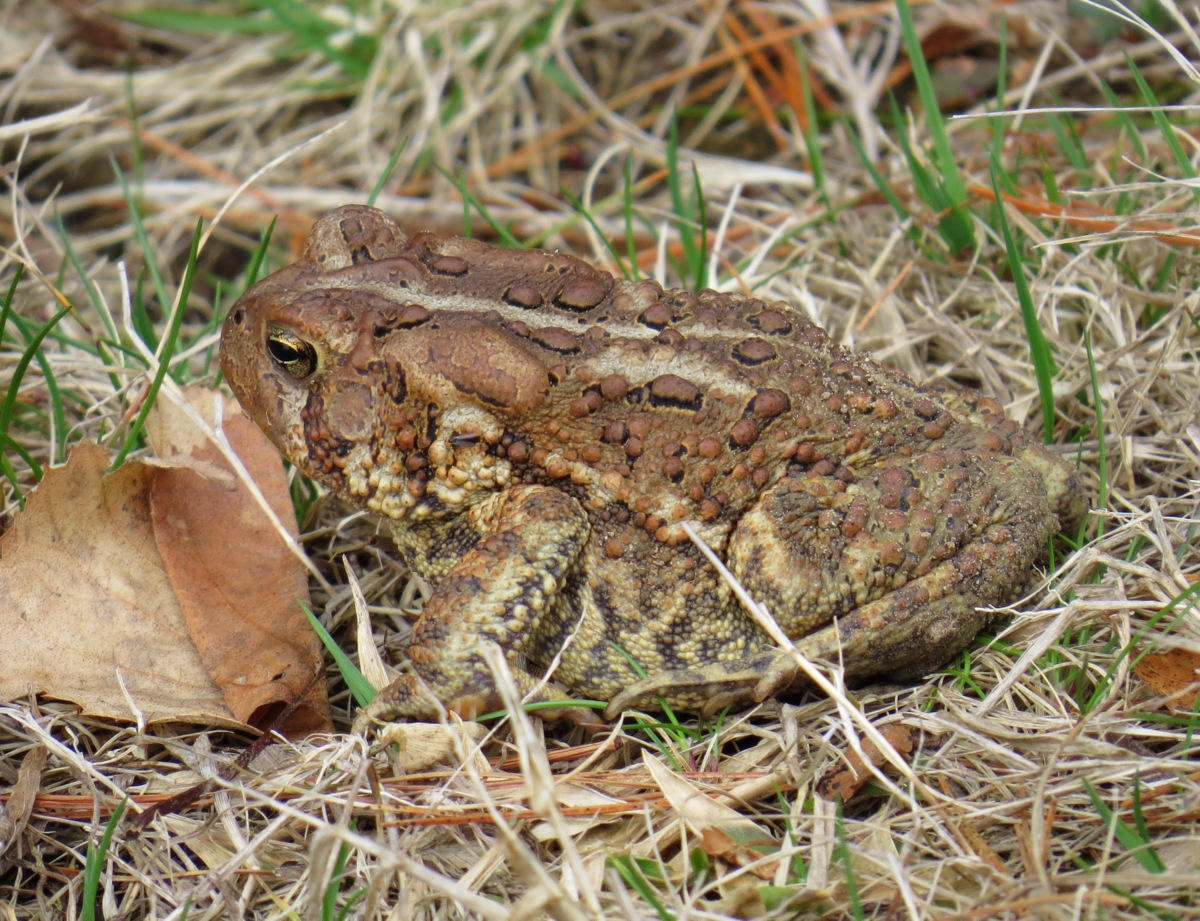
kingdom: Animalia
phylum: Chordata
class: Amphibia
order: Anura
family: Bufonidae
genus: Anaxyrus
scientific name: Anaxyrus americanus
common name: American toad
